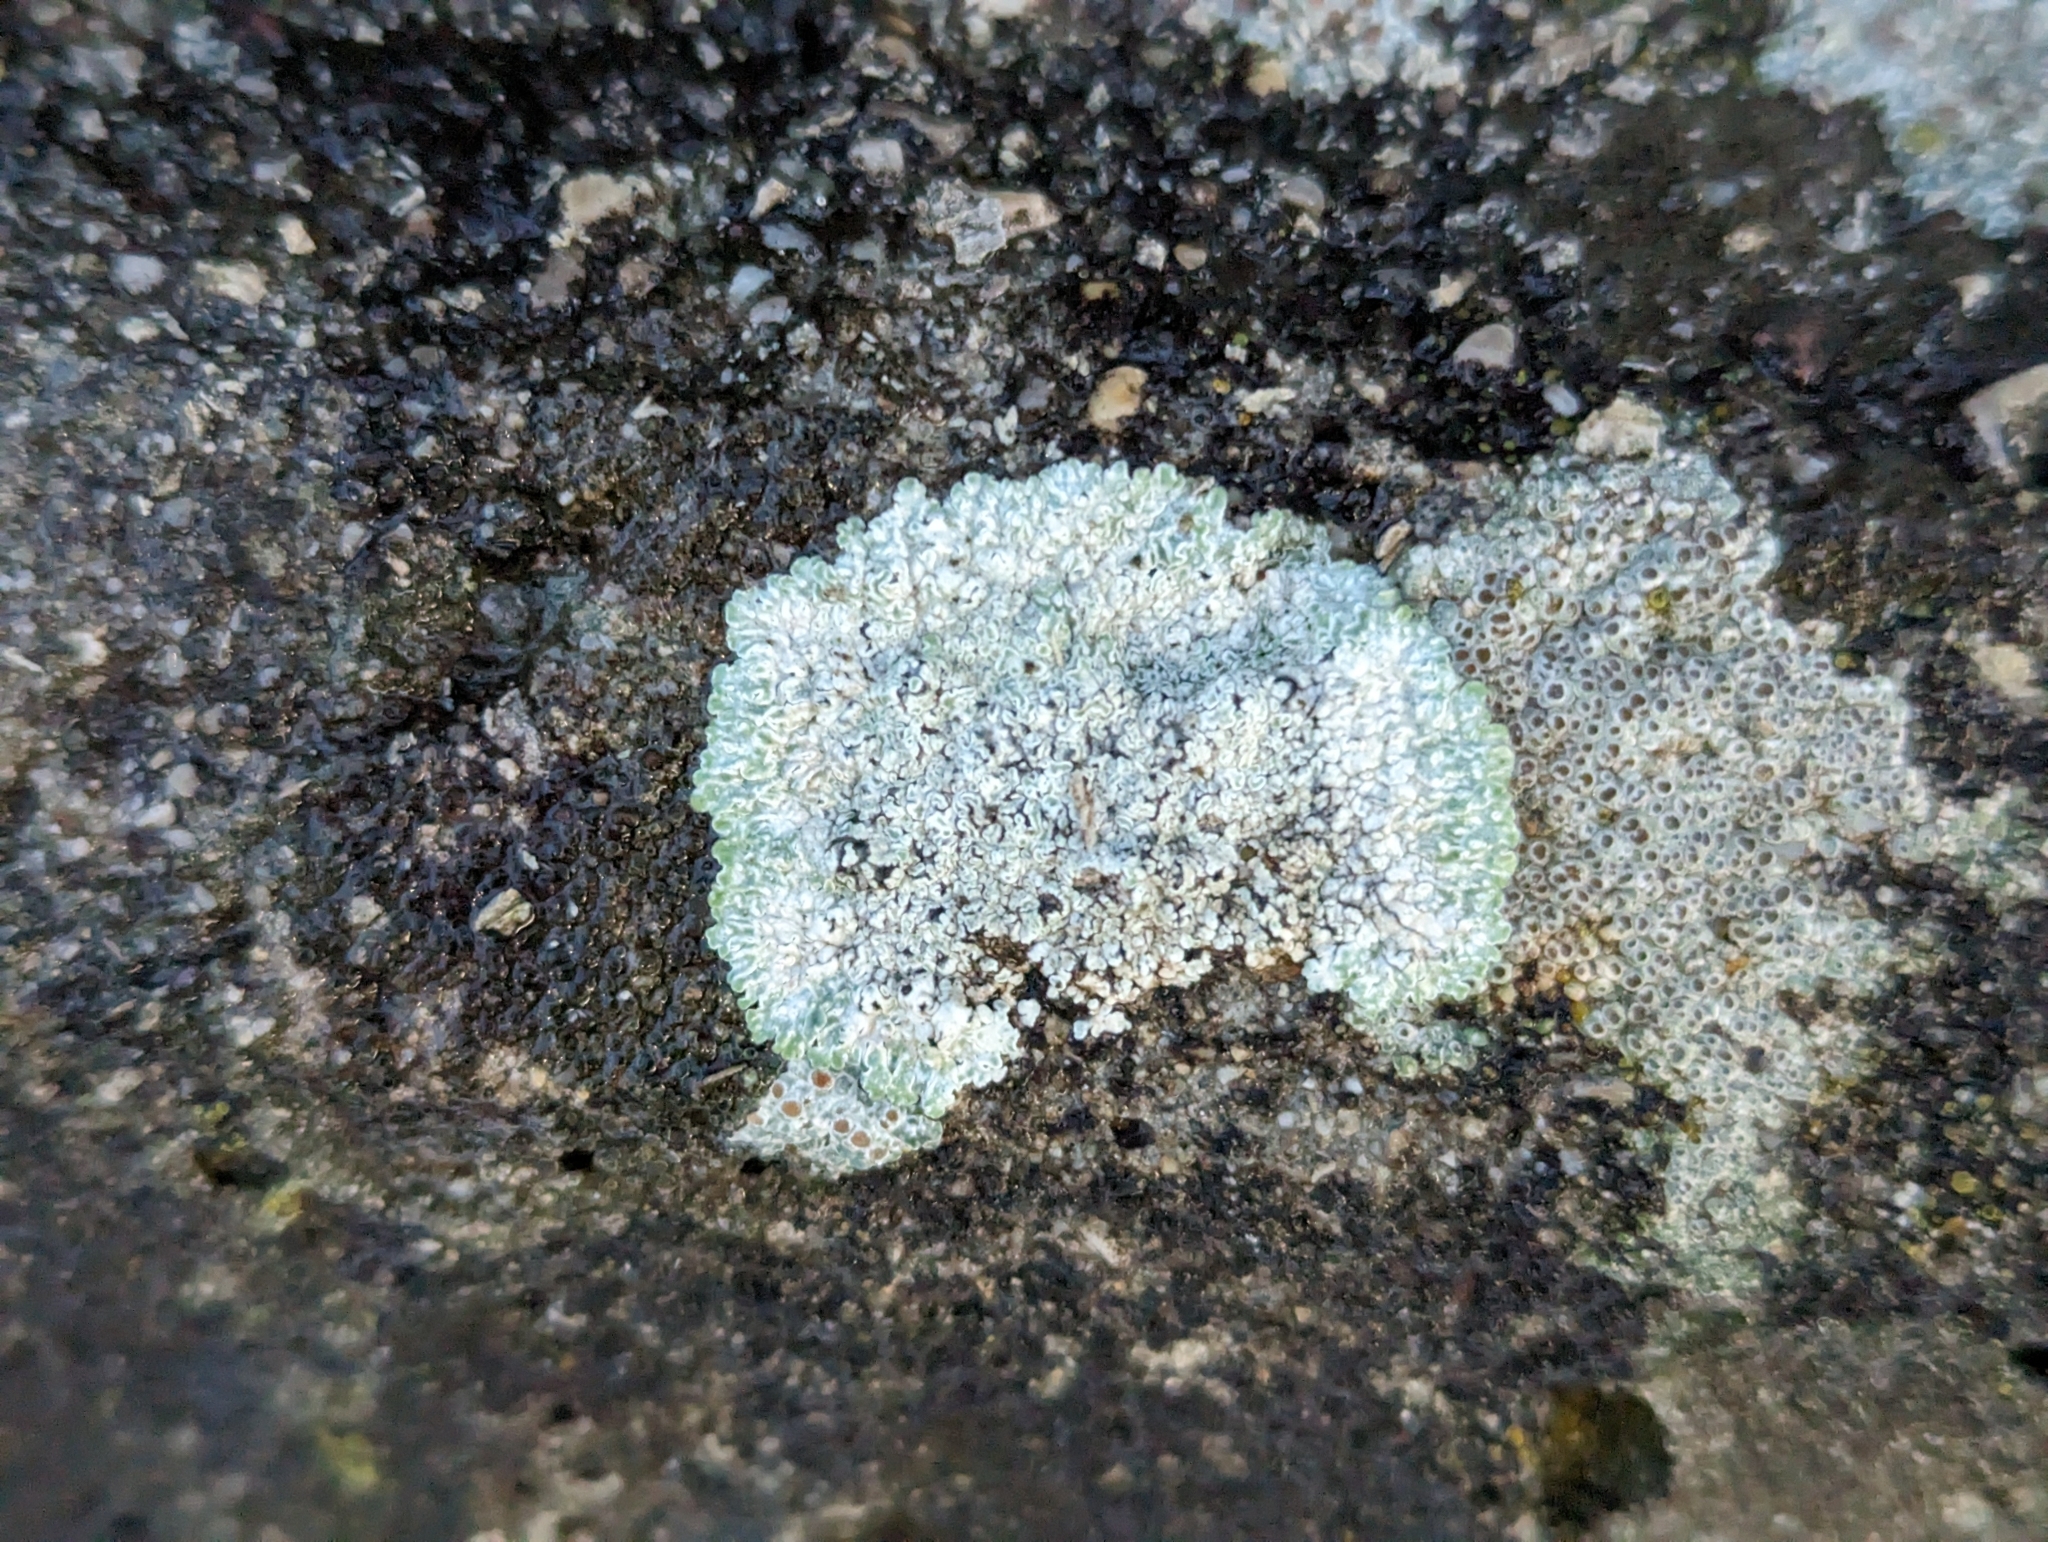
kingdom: Fungi
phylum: Ascomycota
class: Lecanoromycetes
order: Lecanorales
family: Lecanoraceae
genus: Protoparmeliopsis
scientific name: Protoparmeliopsis muralis
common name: Stonewall rim lichen
